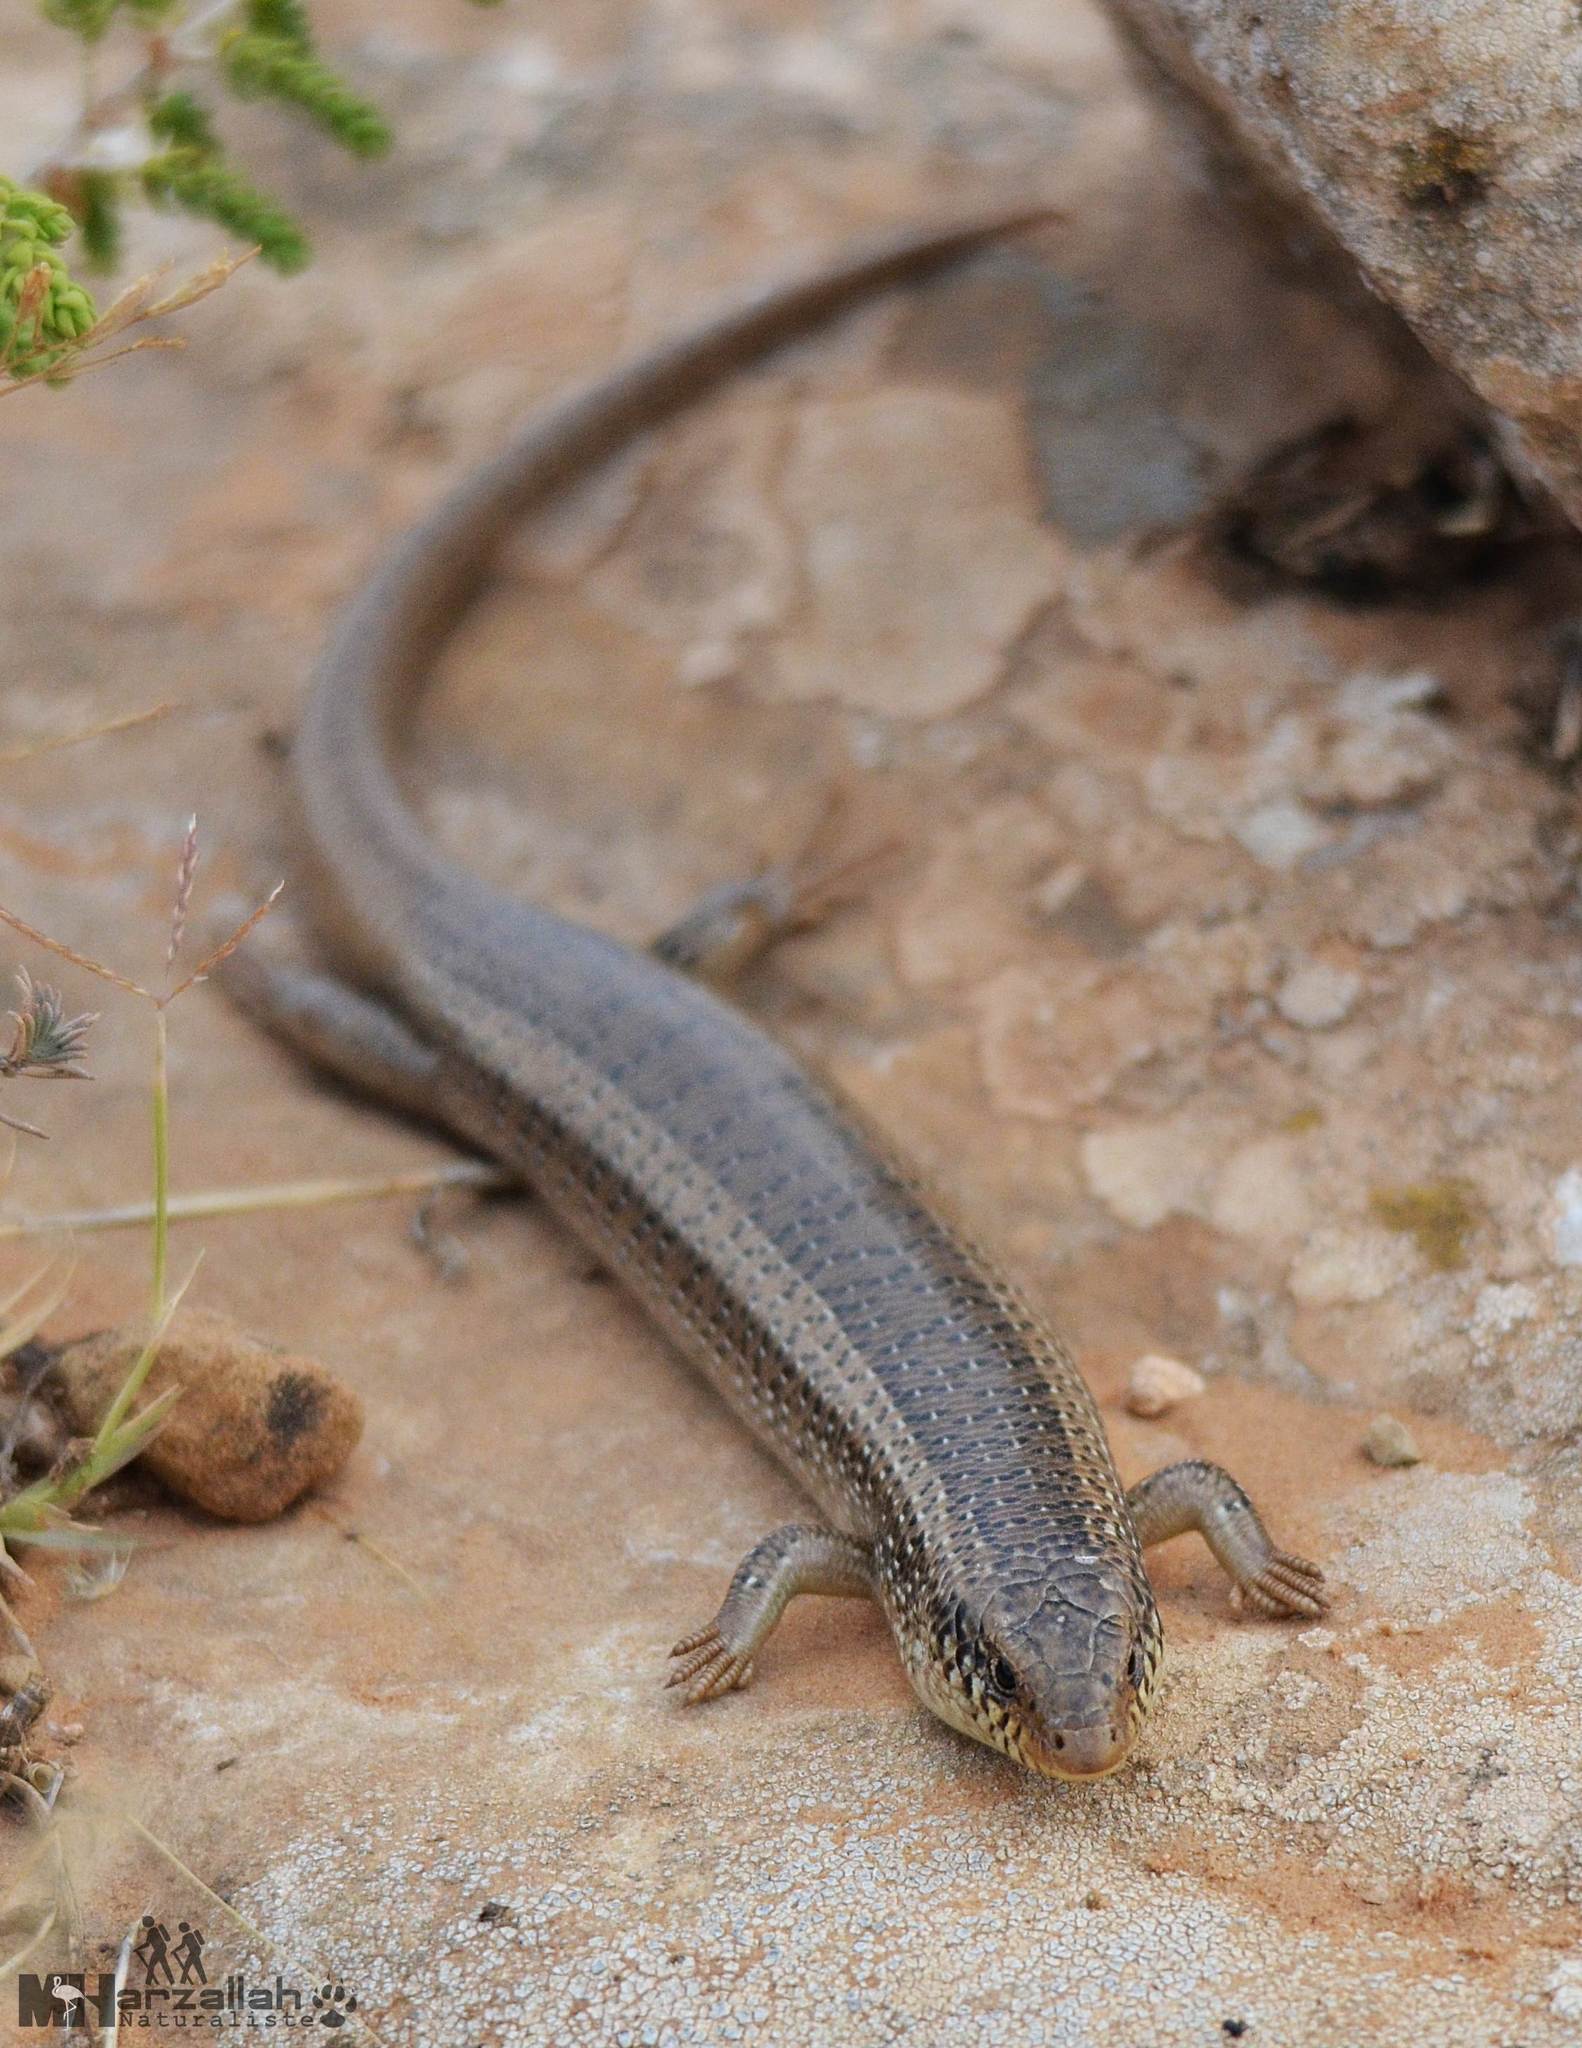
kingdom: Animalia
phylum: Chordata
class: Squamata
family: Scincidae
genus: Chalcides
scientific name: Chalcides ocellatus
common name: Ocellated skink
